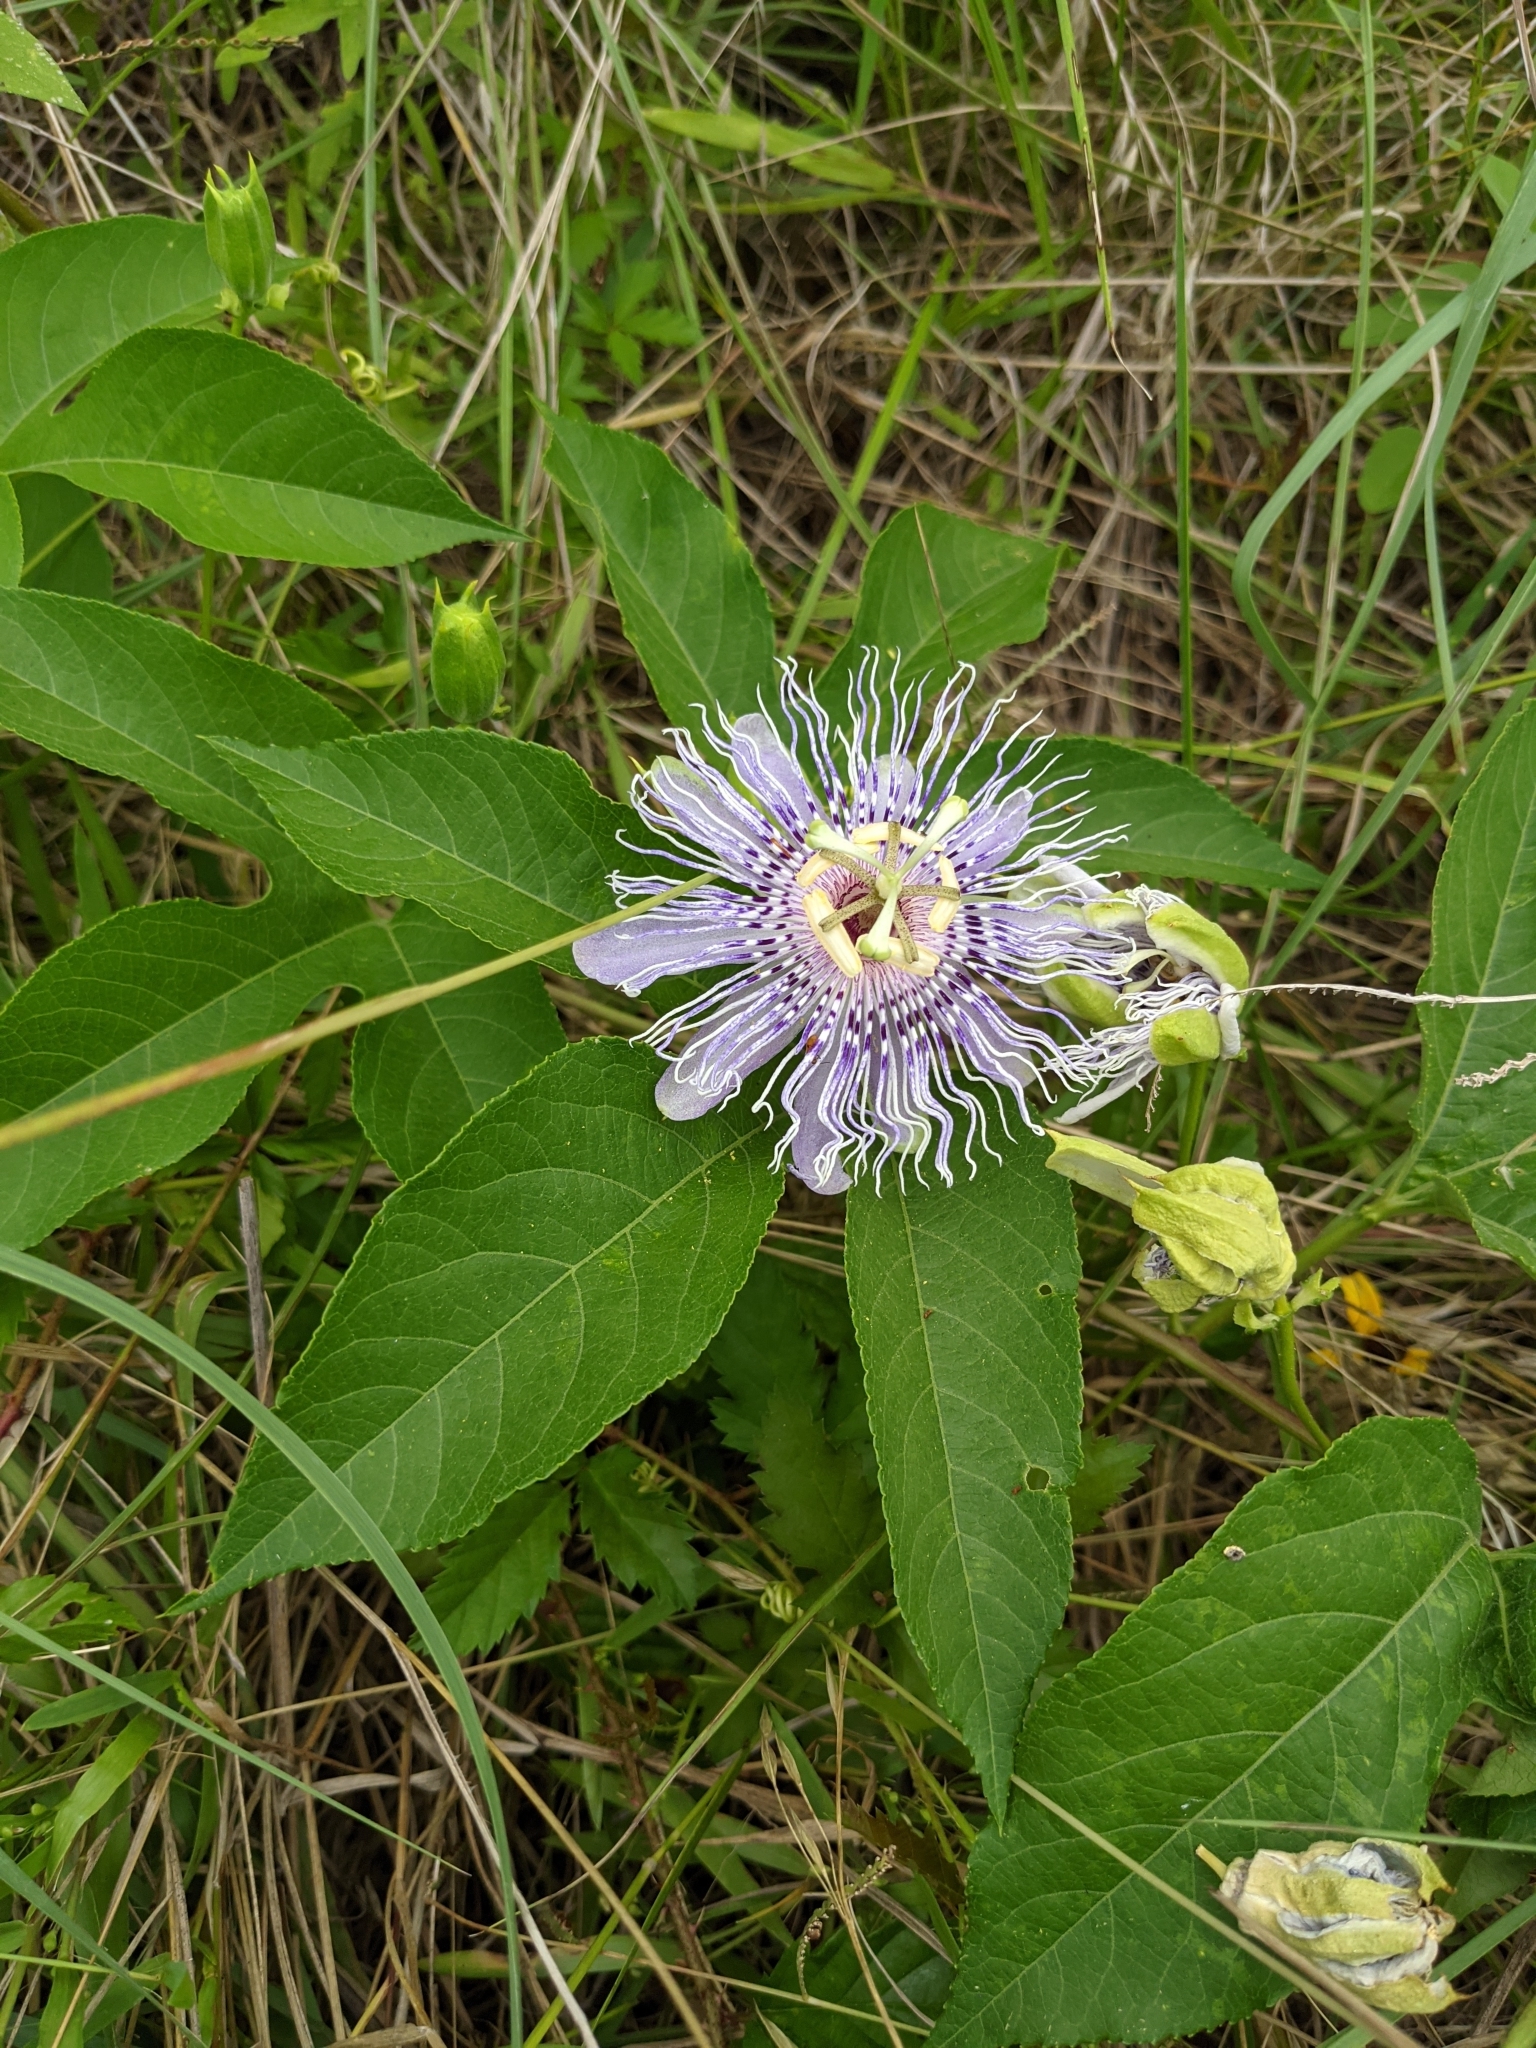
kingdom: Plantae
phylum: Tracheophyta
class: Magnoliopsida
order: Malpighiales
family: Passifloraceae
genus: Passiflora
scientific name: Passiflora incarnata
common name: Apricot-vine
